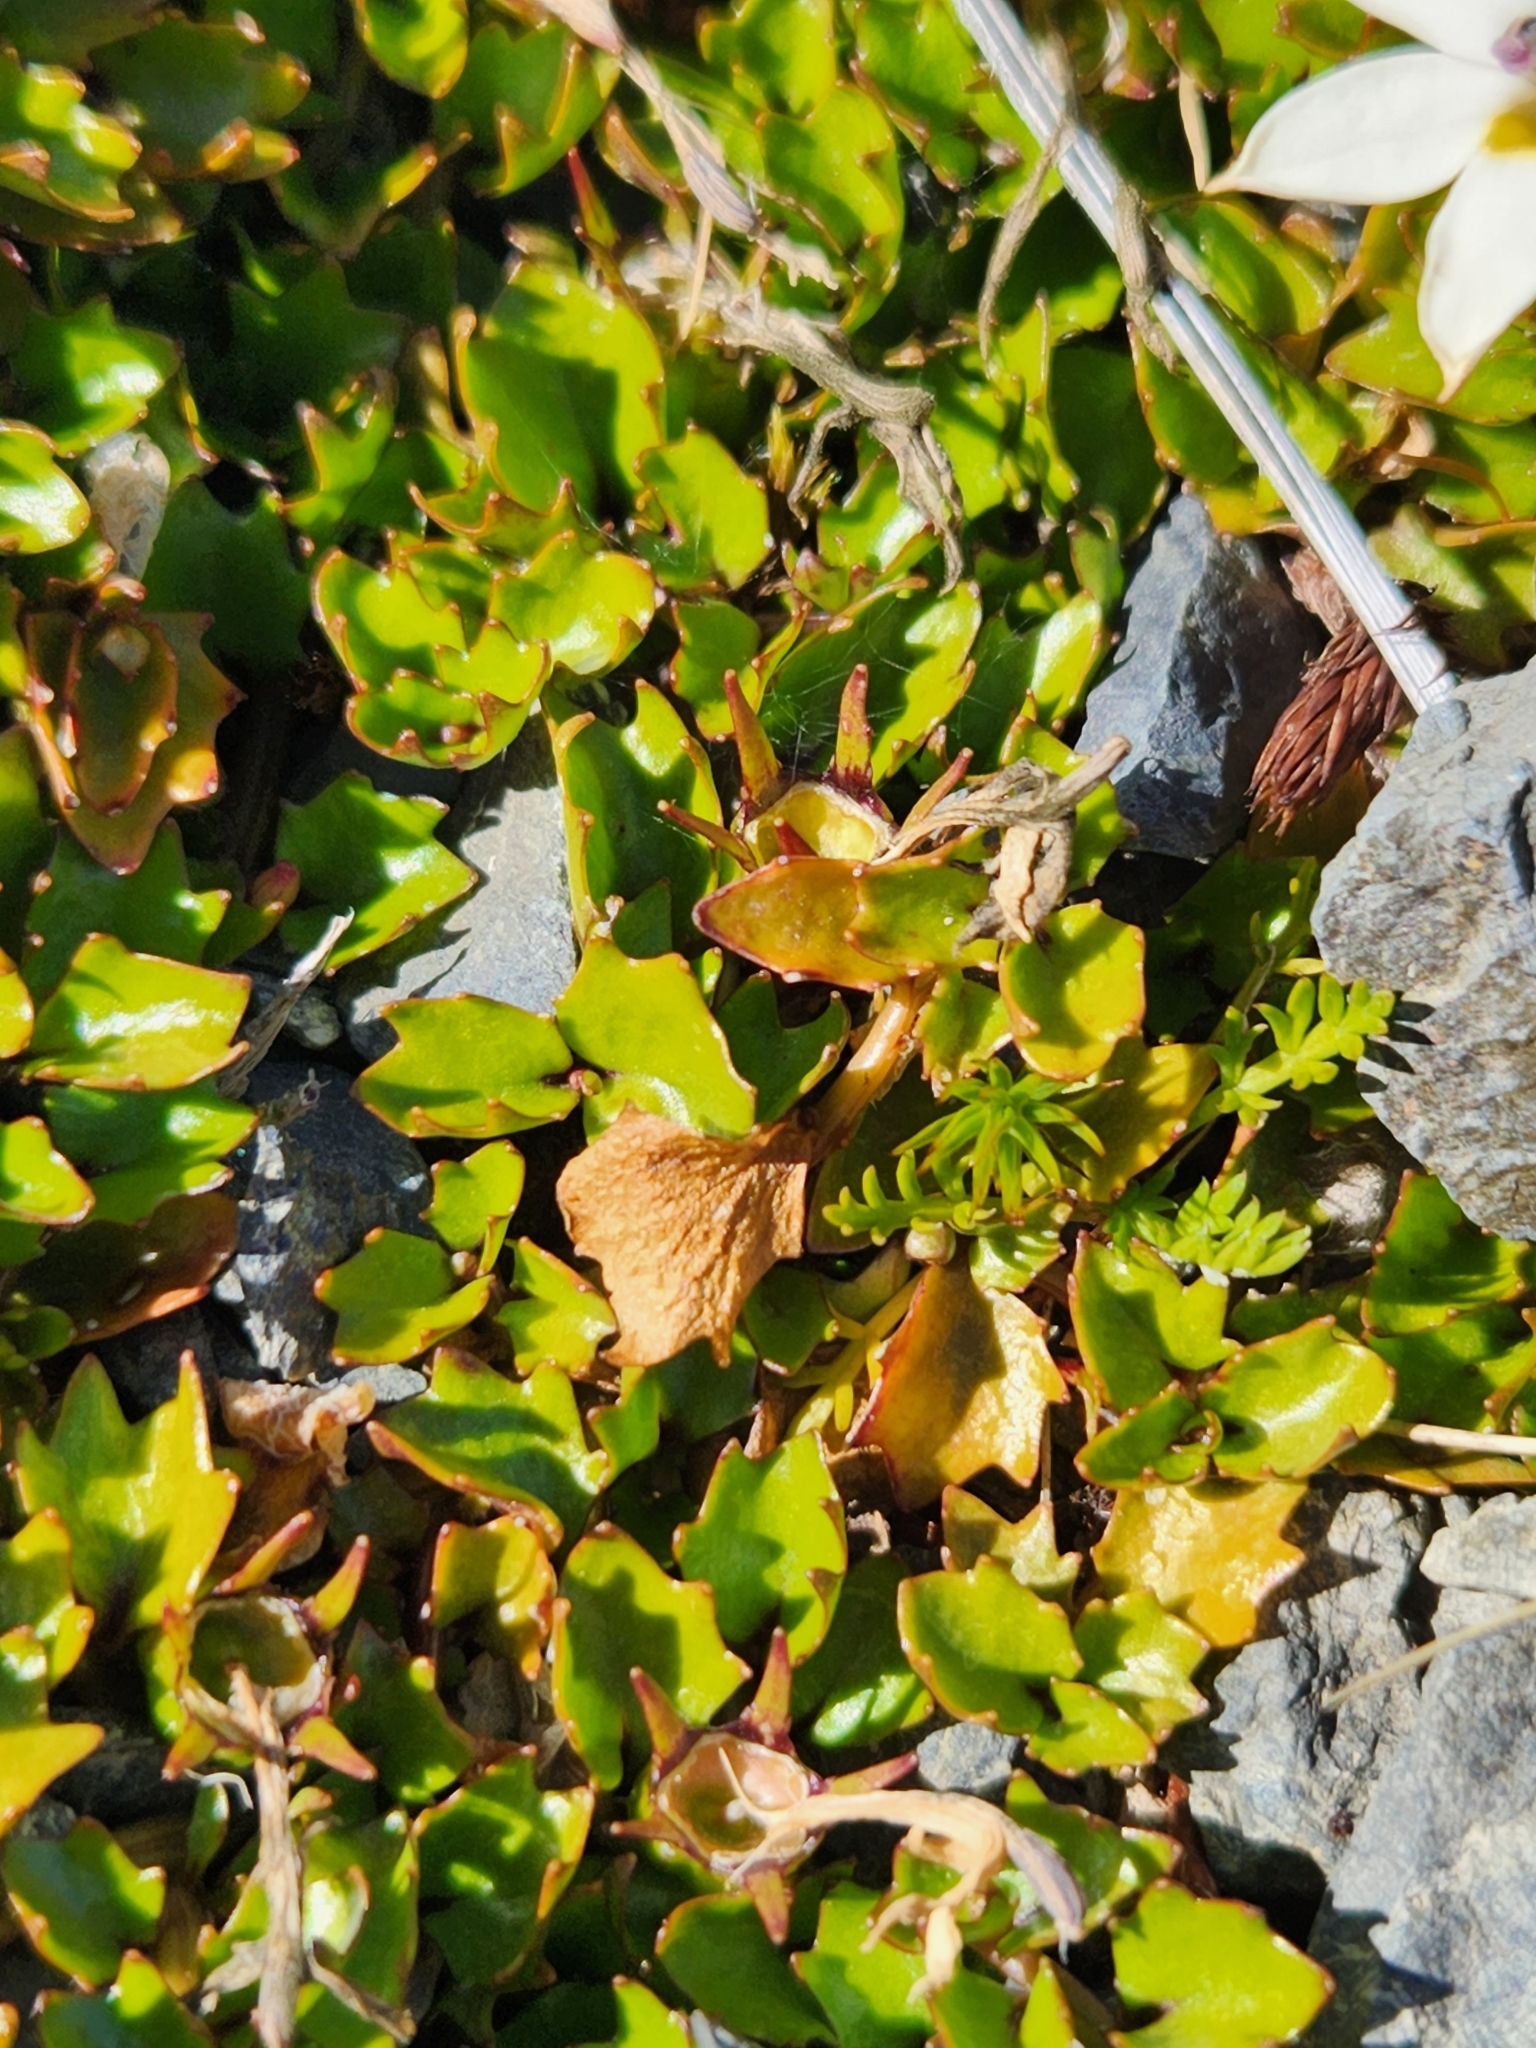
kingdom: Plantae
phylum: Tracheophyta
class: Magnoliopsida
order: Asterales
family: Campanulaceae
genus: Lobelia
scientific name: Lobelia macrodon
